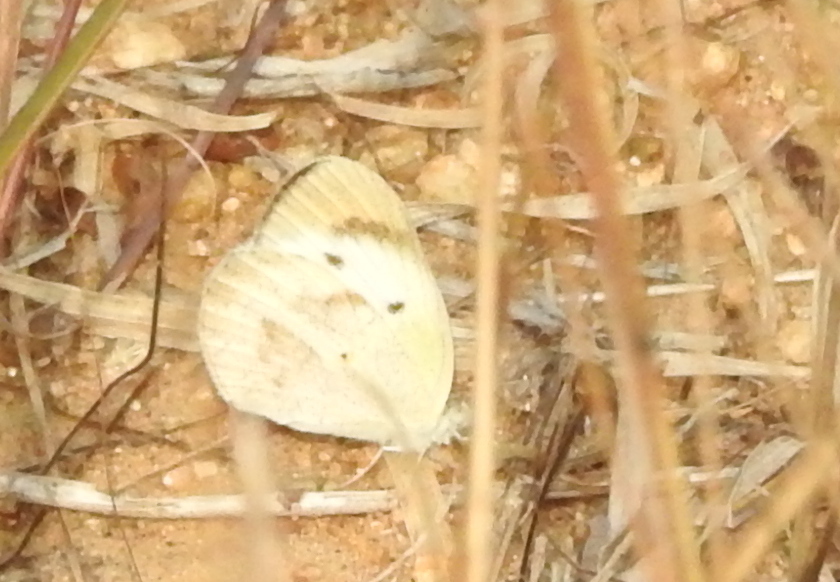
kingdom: Animalia
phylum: Arthropoda
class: Insecta
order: Lepidoptera
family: Pieridae
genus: Colotis
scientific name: Colotis etrida
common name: Little orange tip
